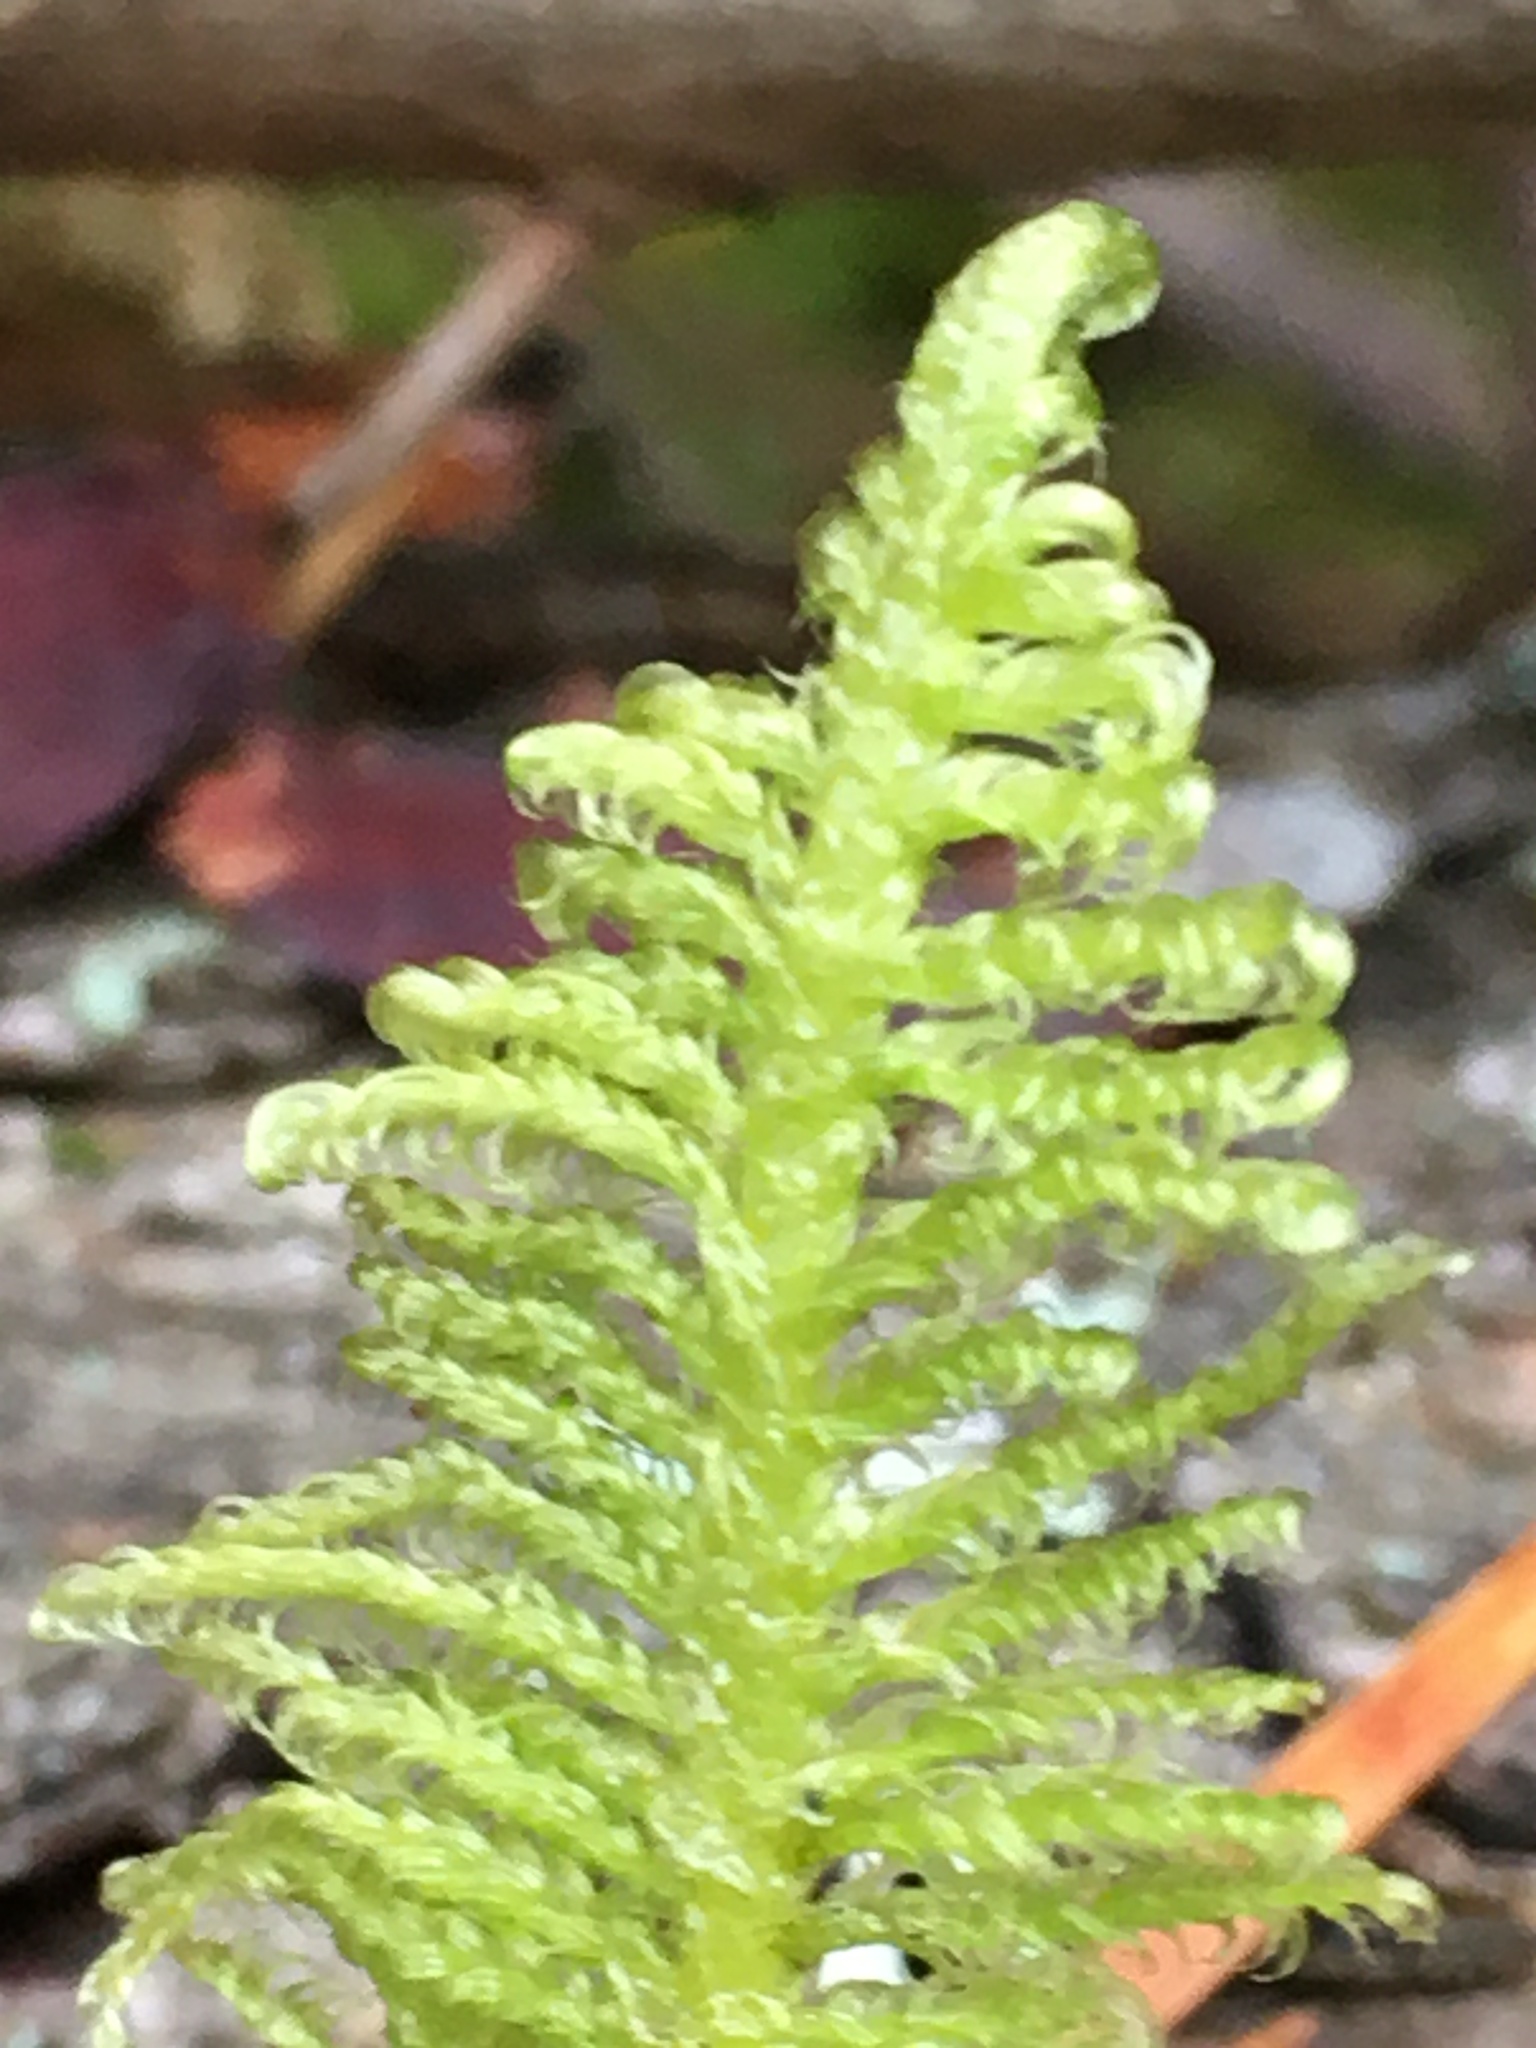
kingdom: Plantae
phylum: Bryophyta
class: Bryopsida
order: Hypnales
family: Pylaisiaceae
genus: Ptilium
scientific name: Ptilium crista-castrensis
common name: Knight's plume moss
